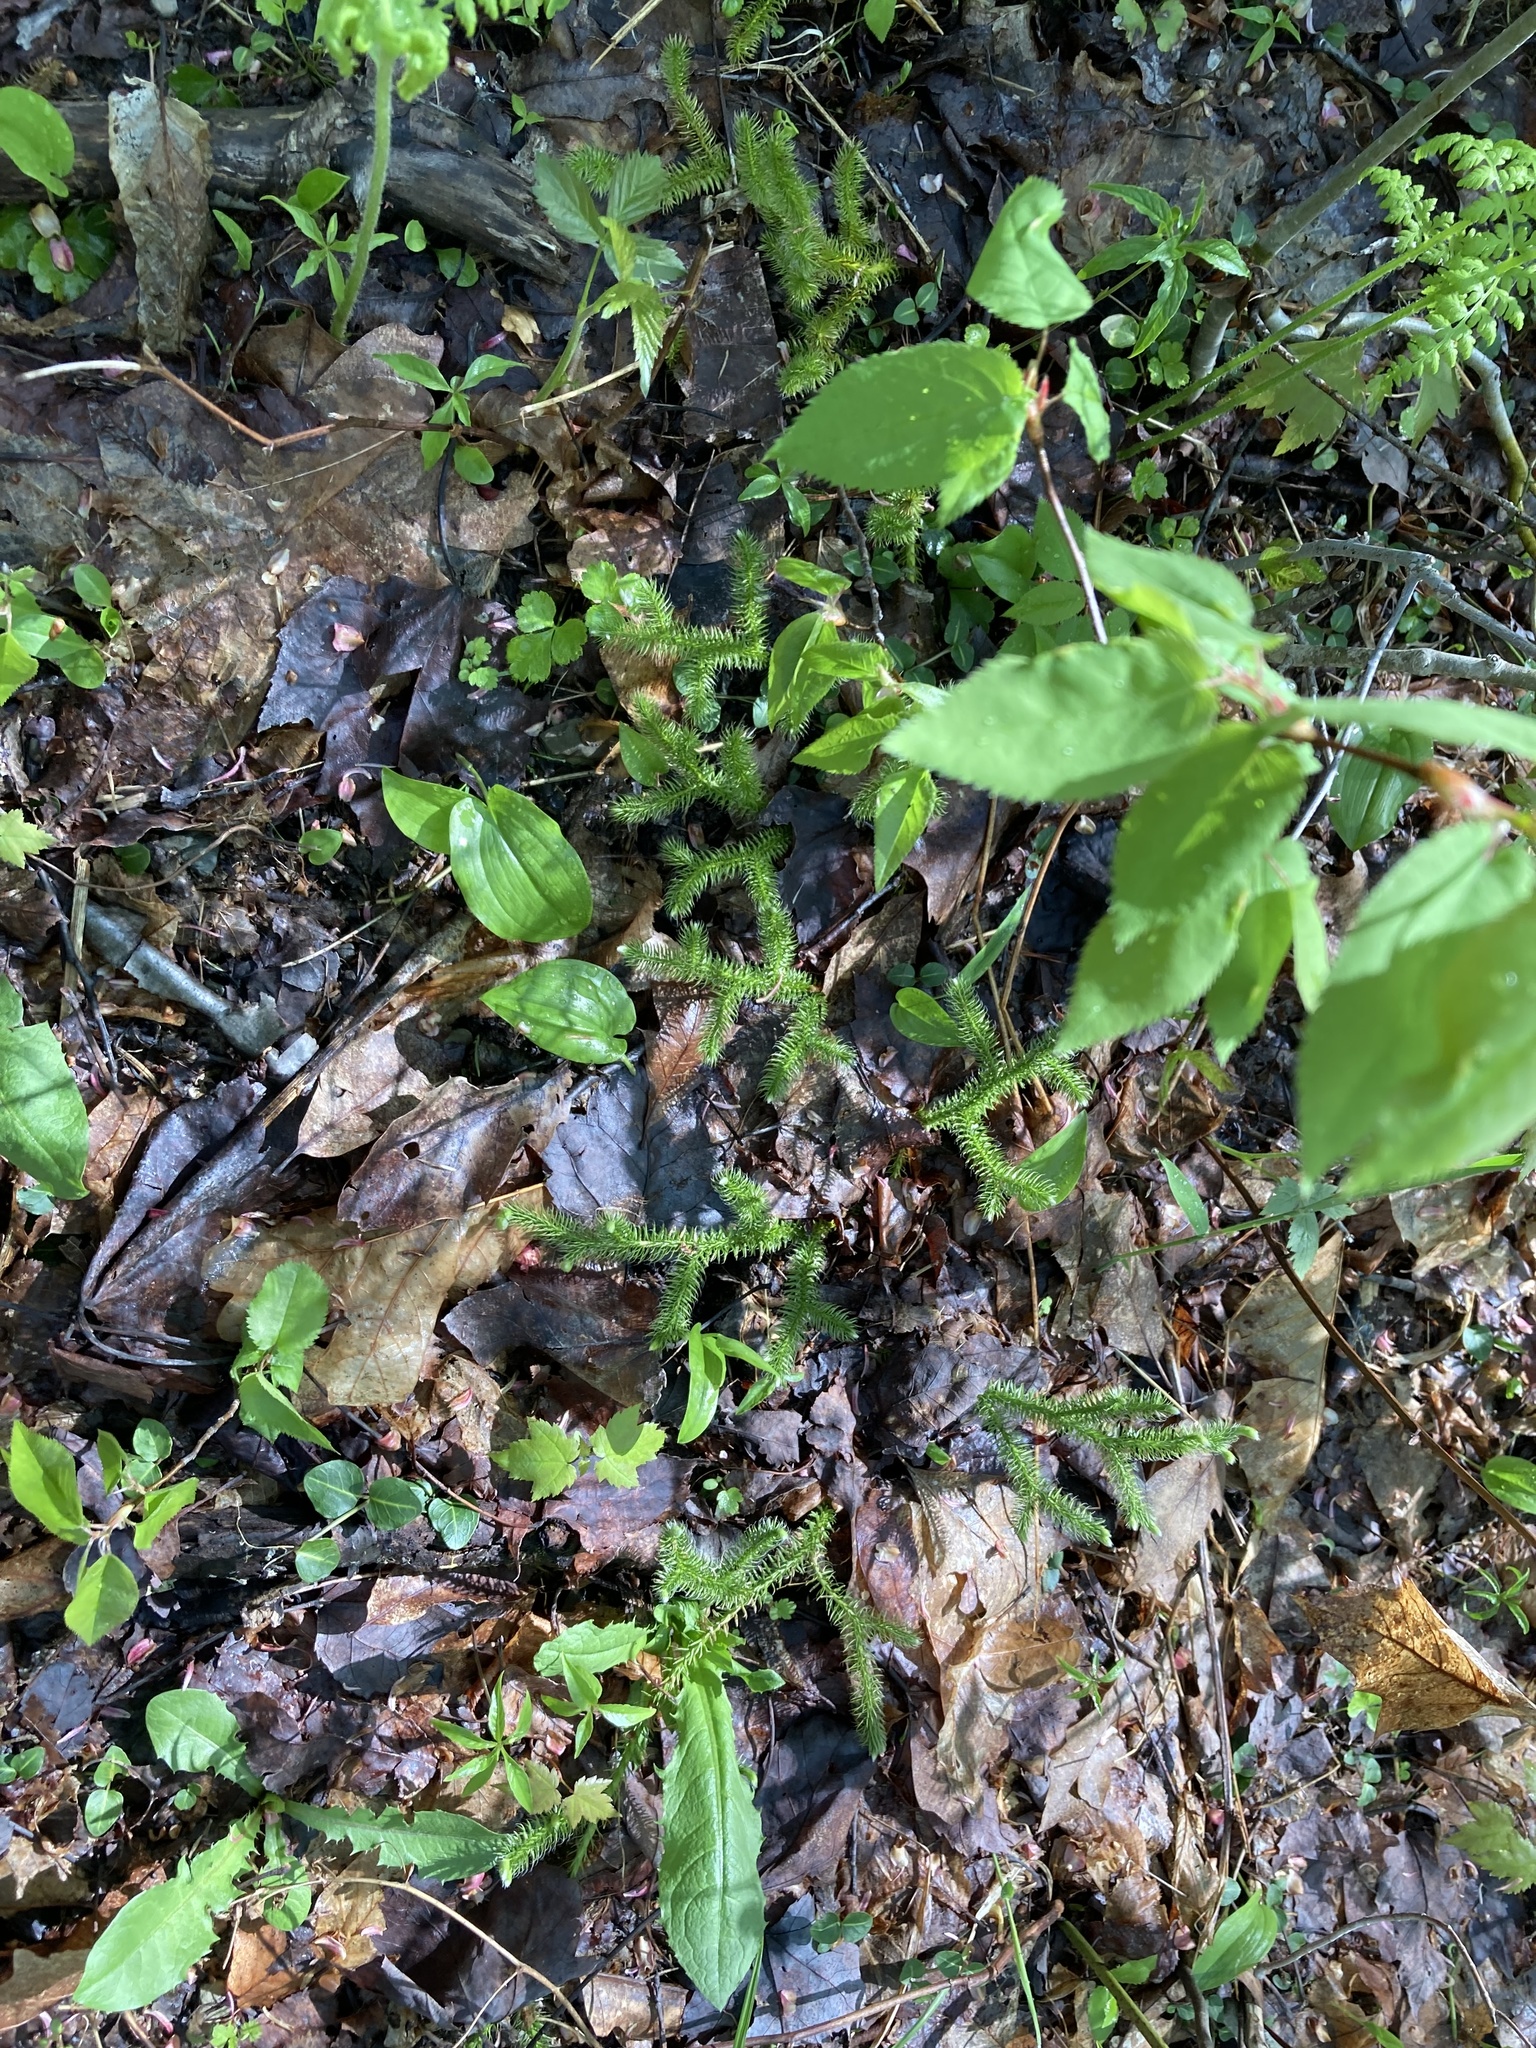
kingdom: Plantae
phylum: Tracheophyta
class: Lycopodiopsida
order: Lycopodiales
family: Lycopodiaceae
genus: Lycopodium
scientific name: Lycopodium clavatum
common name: Stag's-horn clubmoss
